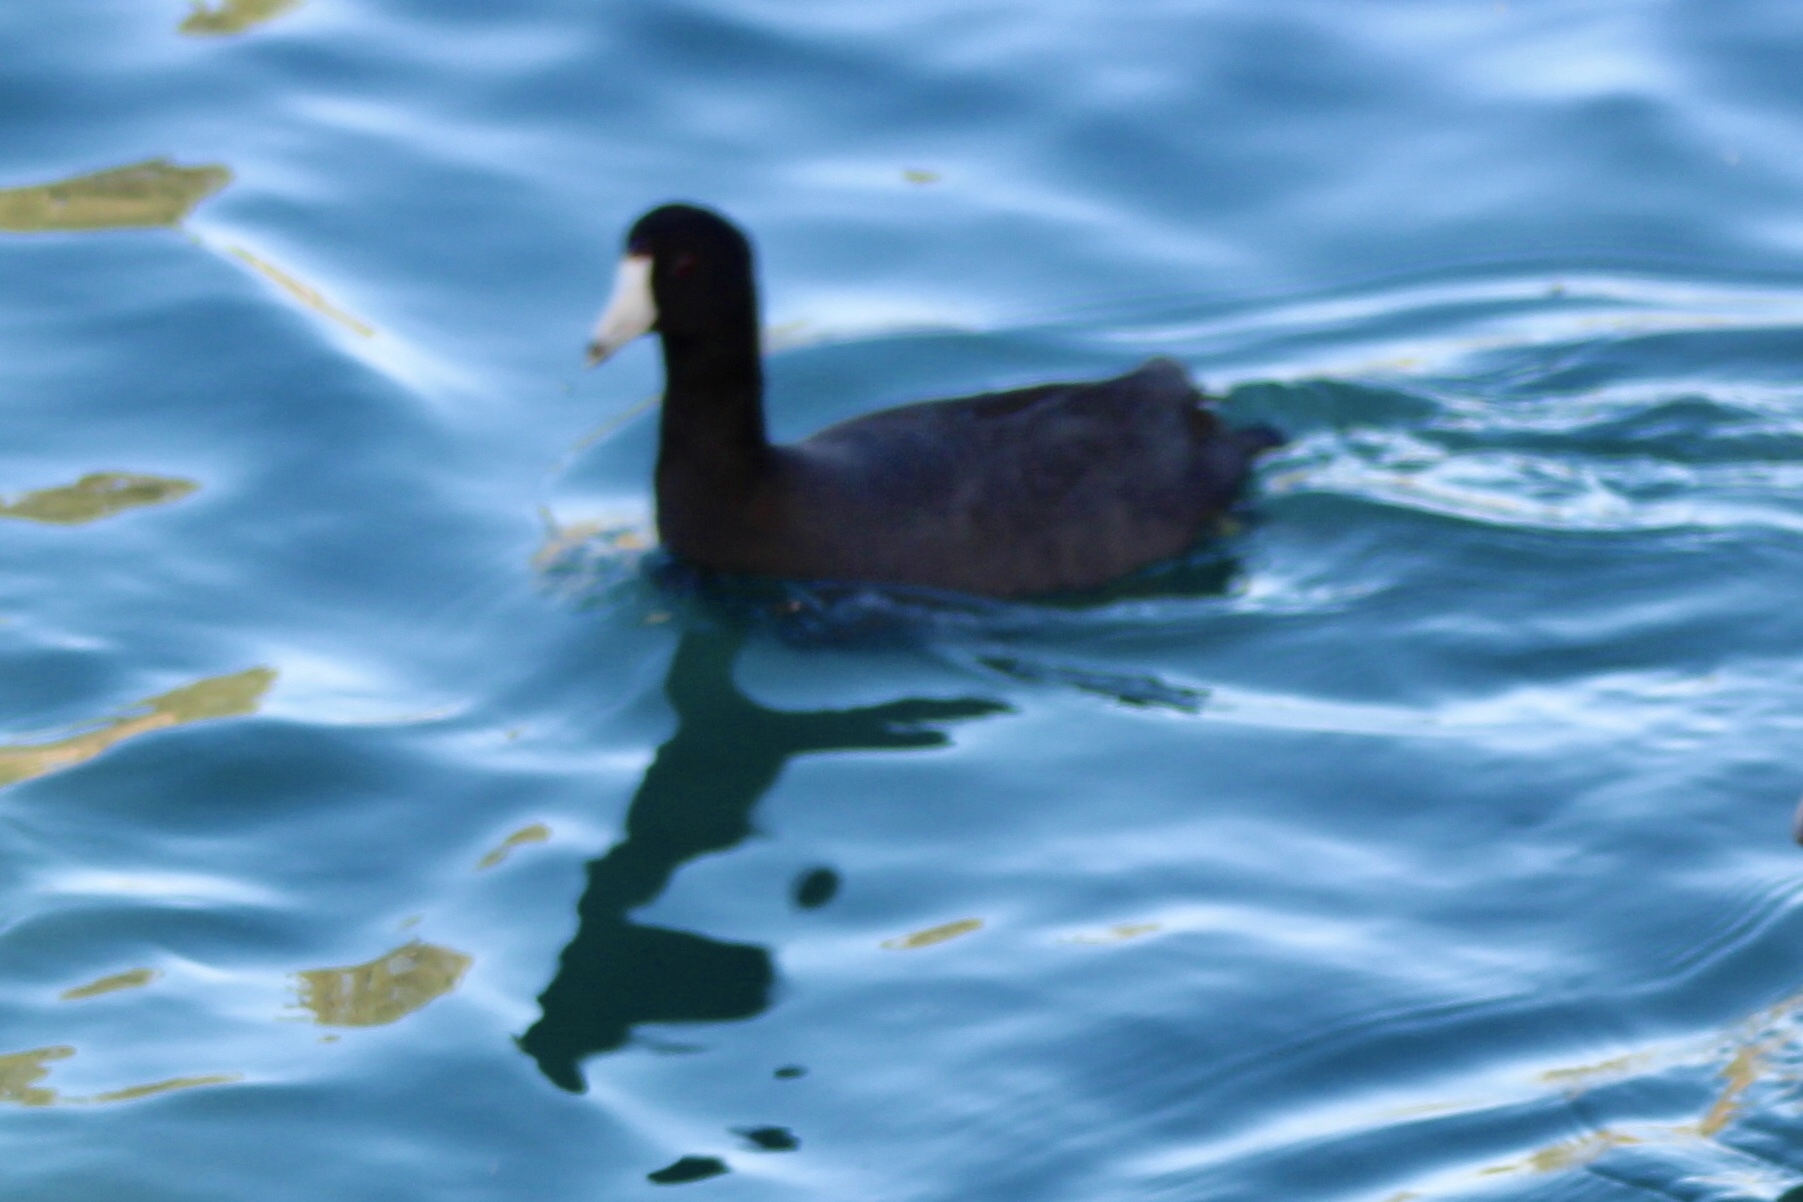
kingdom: Animalia
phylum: Chordata
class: Aves
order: Gruiformes
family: Rallidae
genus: Fulica
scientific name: Fulica americana
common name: American coot
